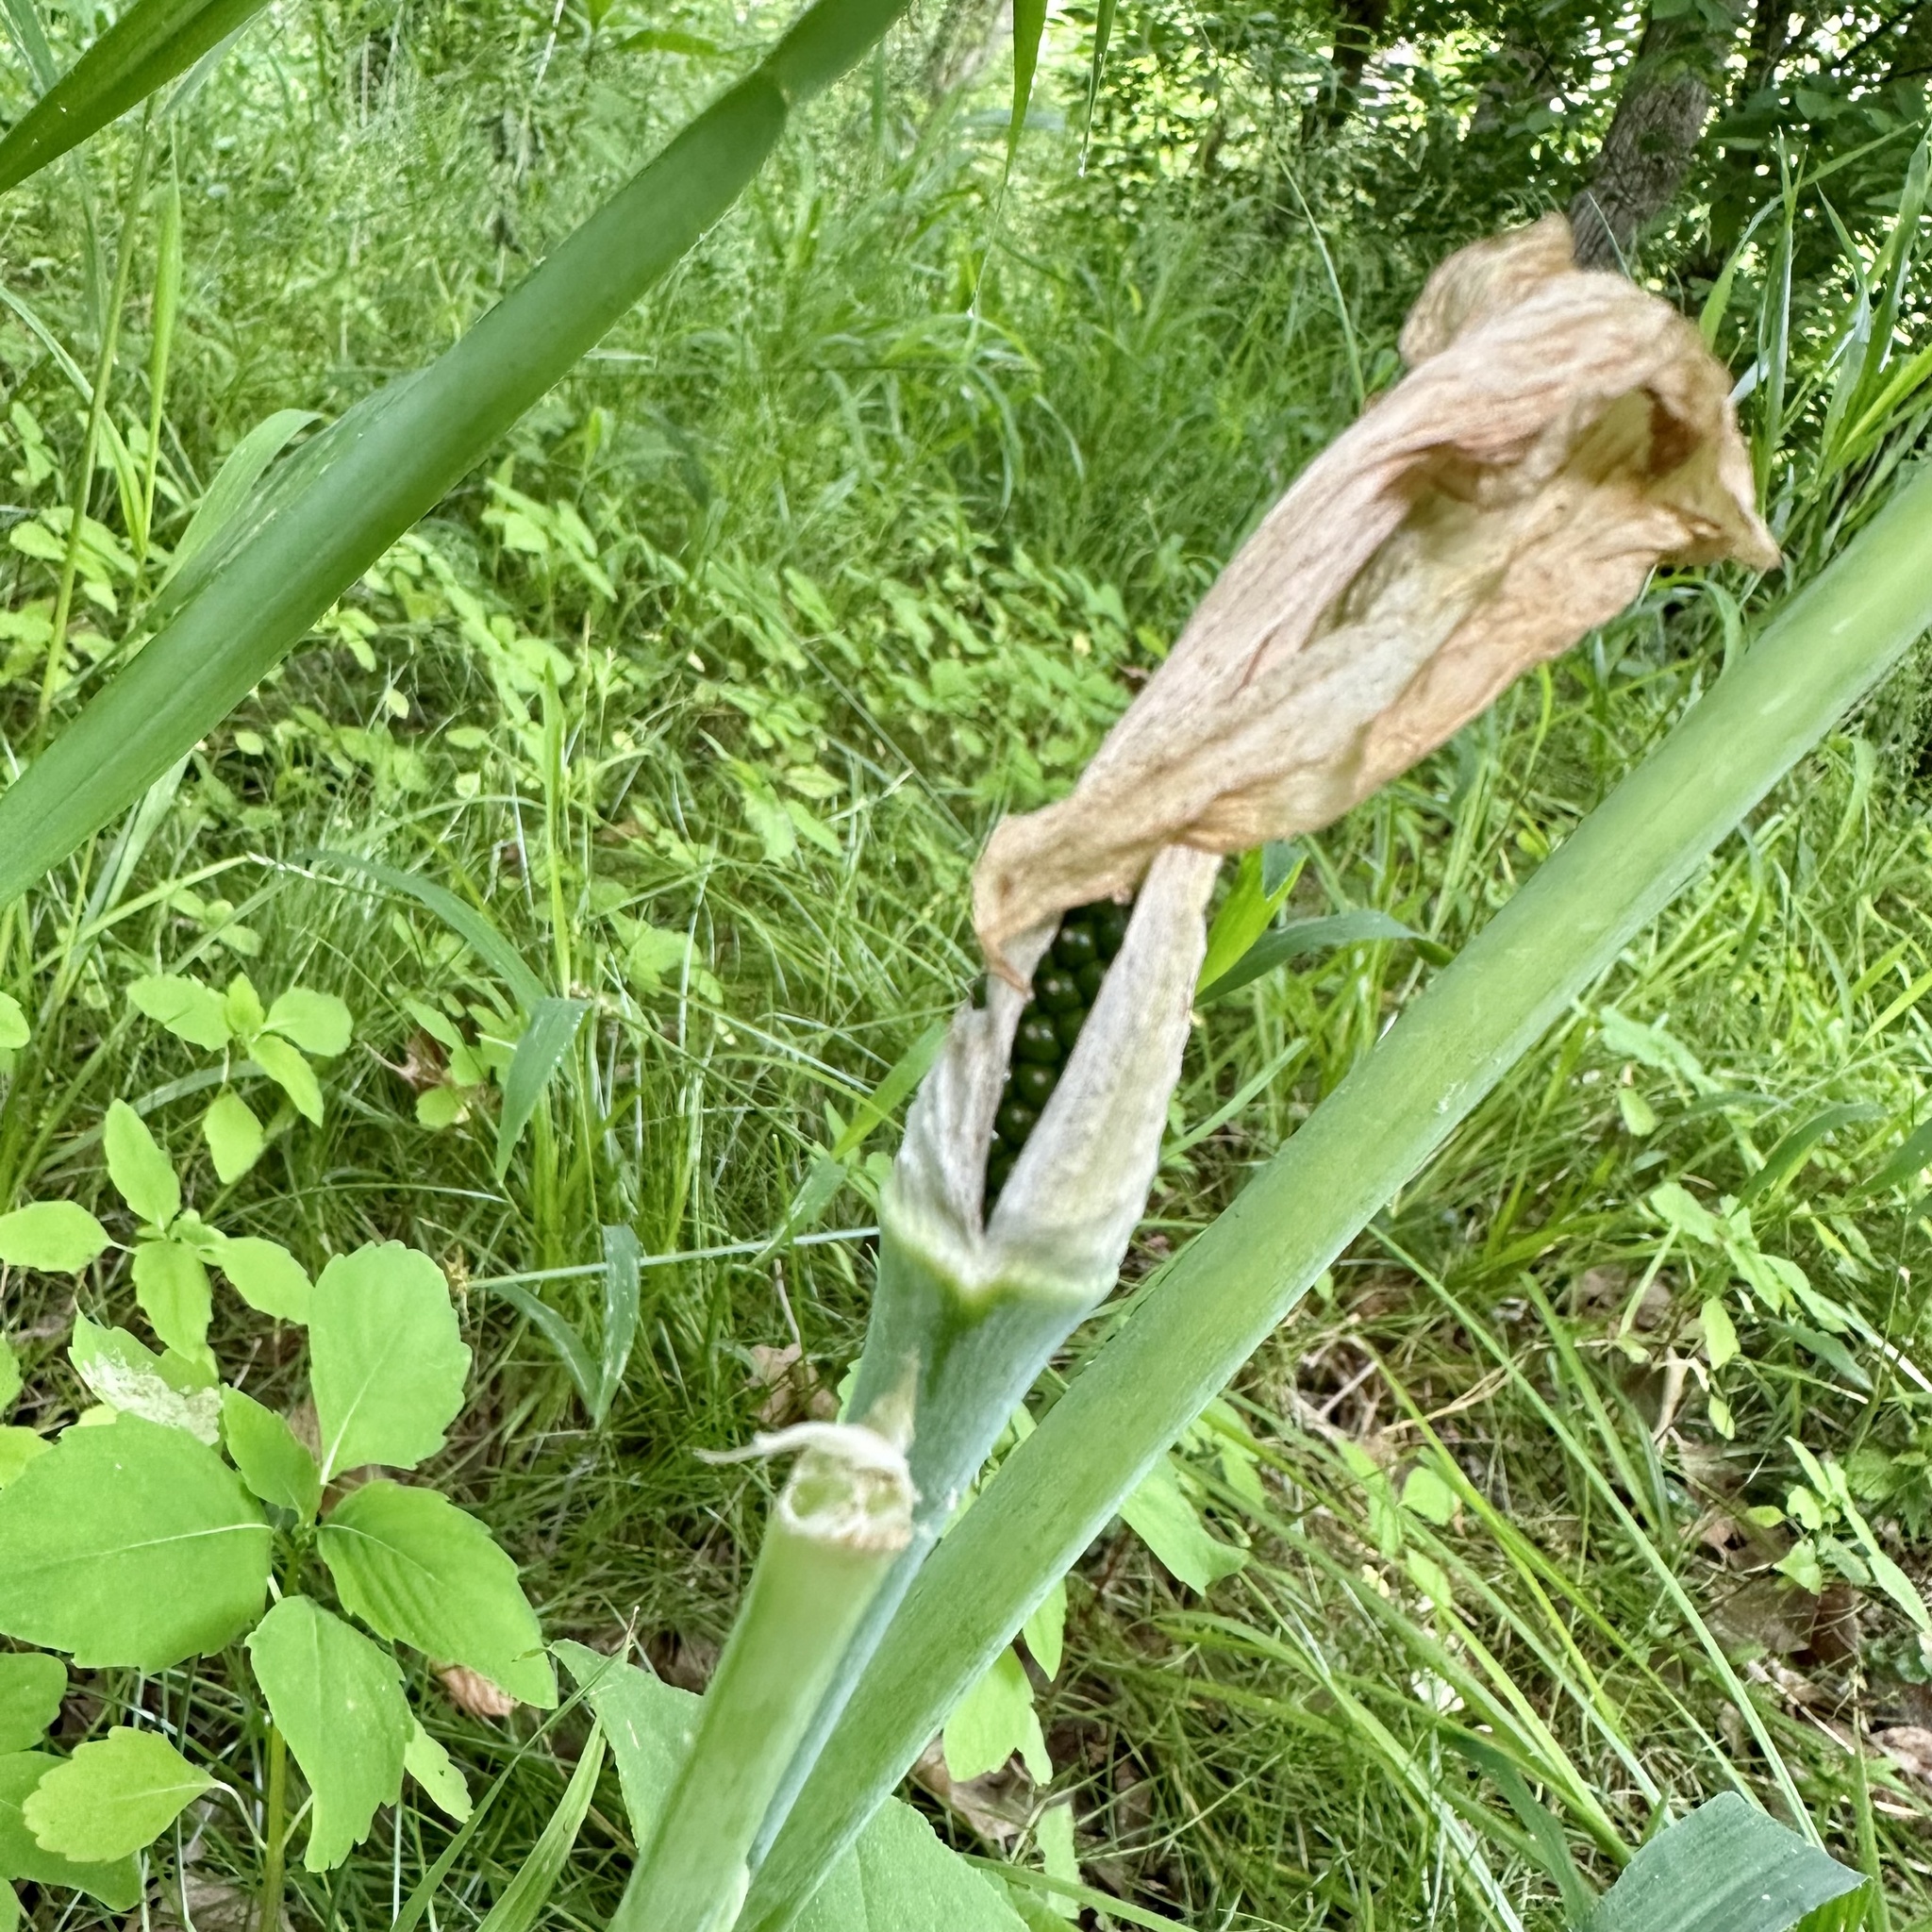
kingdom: Plantae
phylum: Tracheophyta
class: Liliopsida
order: Alismatales
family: Araceae
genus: Arisaema
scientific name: Arisaema triphyllum
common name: Jack-in-the-pulpit
